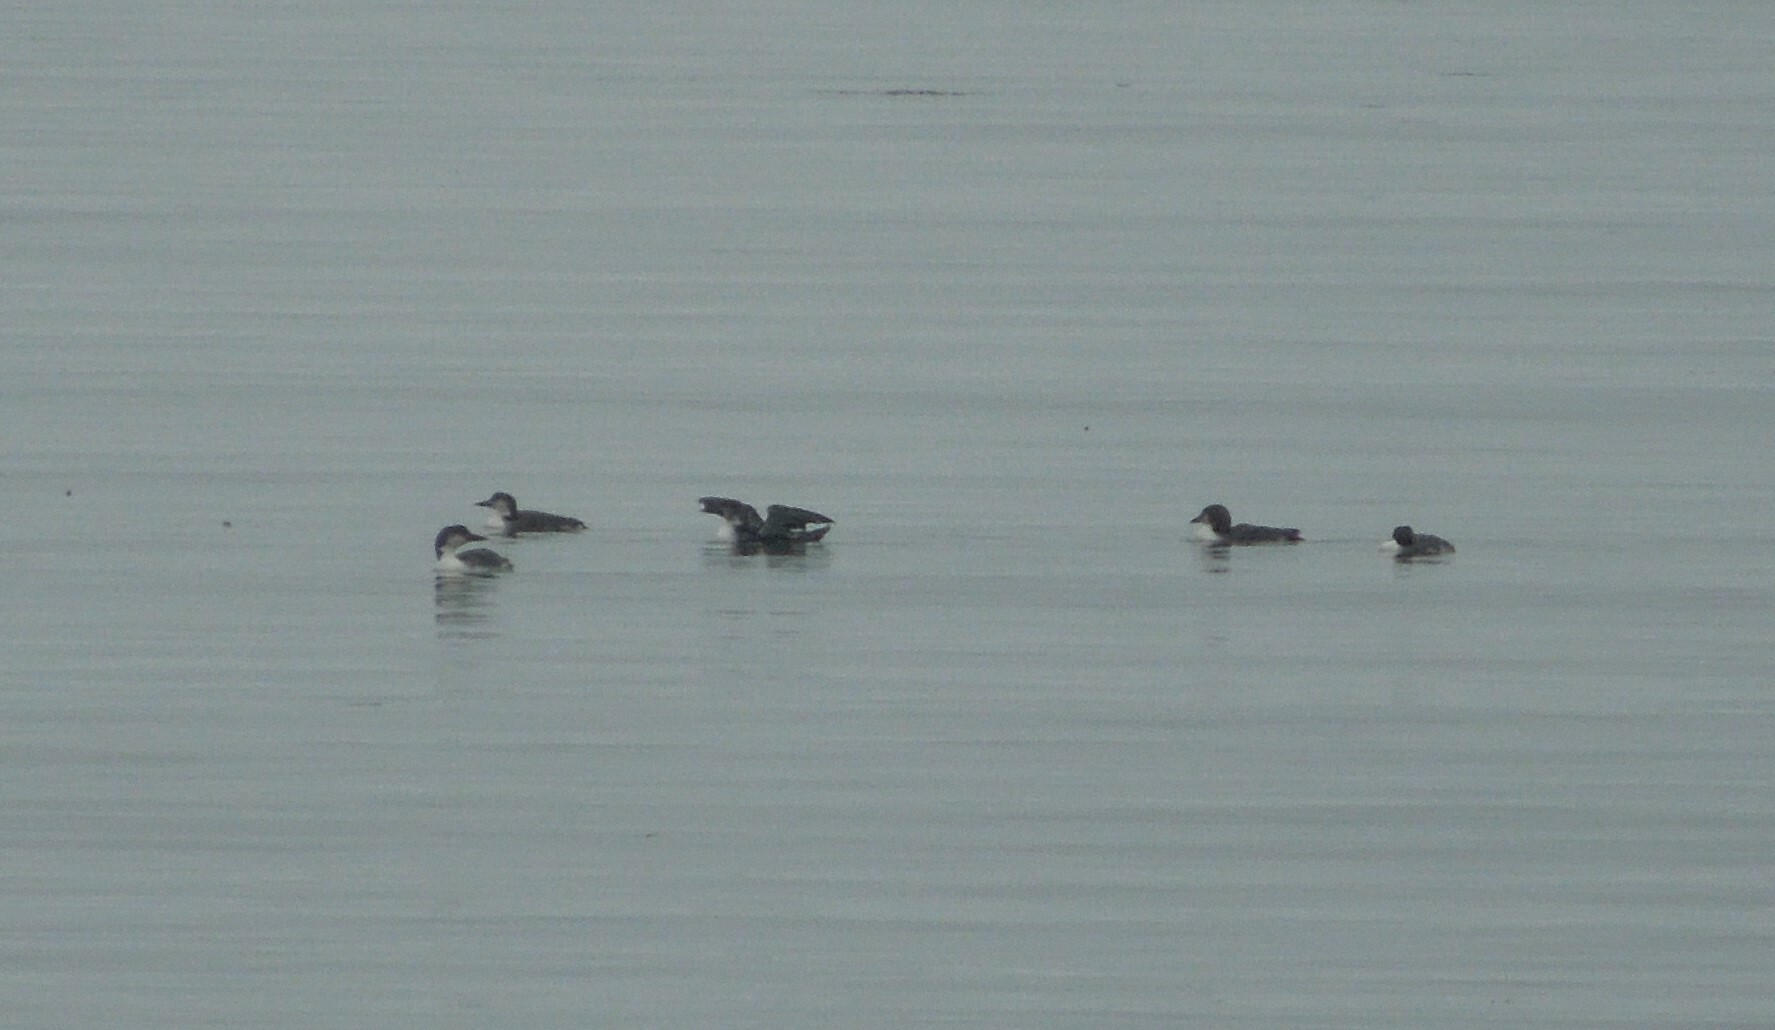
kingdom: Animalia
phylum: Chordata
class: Aves
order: Gaviiformes
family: Gaviidae
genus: Gavia
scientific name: Gavia immer
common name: Common loon
